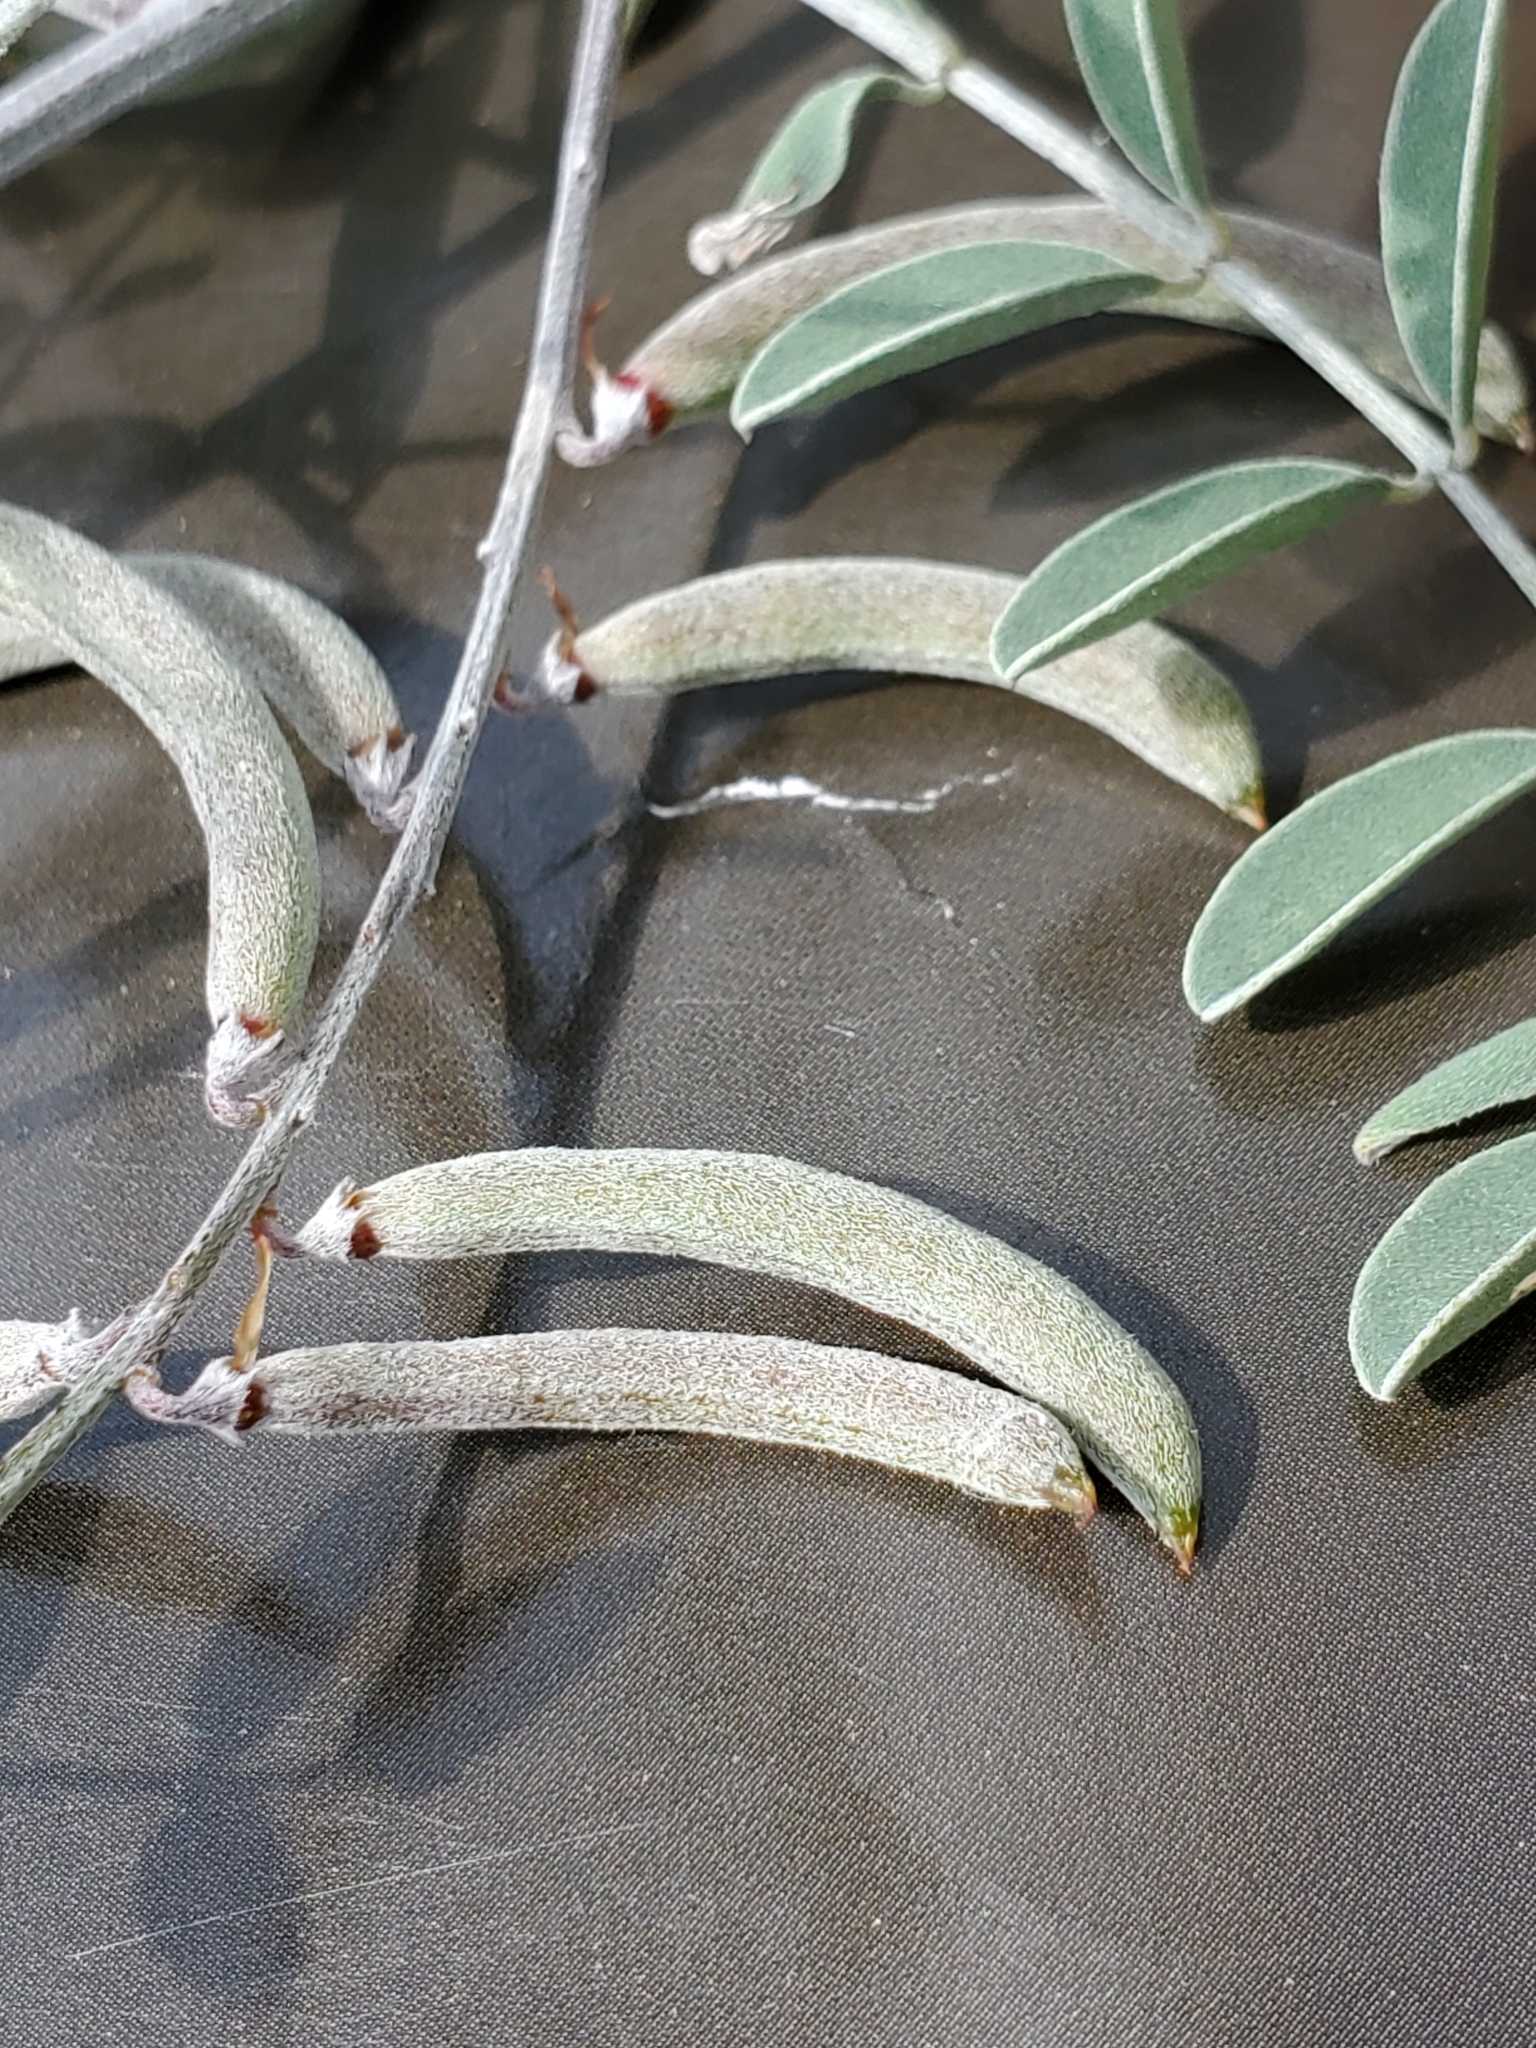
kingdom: Plantae
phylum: Tracheophyta
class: Magnoliopsida
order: Fabales
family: Fabaceae
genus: Indigofera
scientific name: Indigofera lindheimeriana
